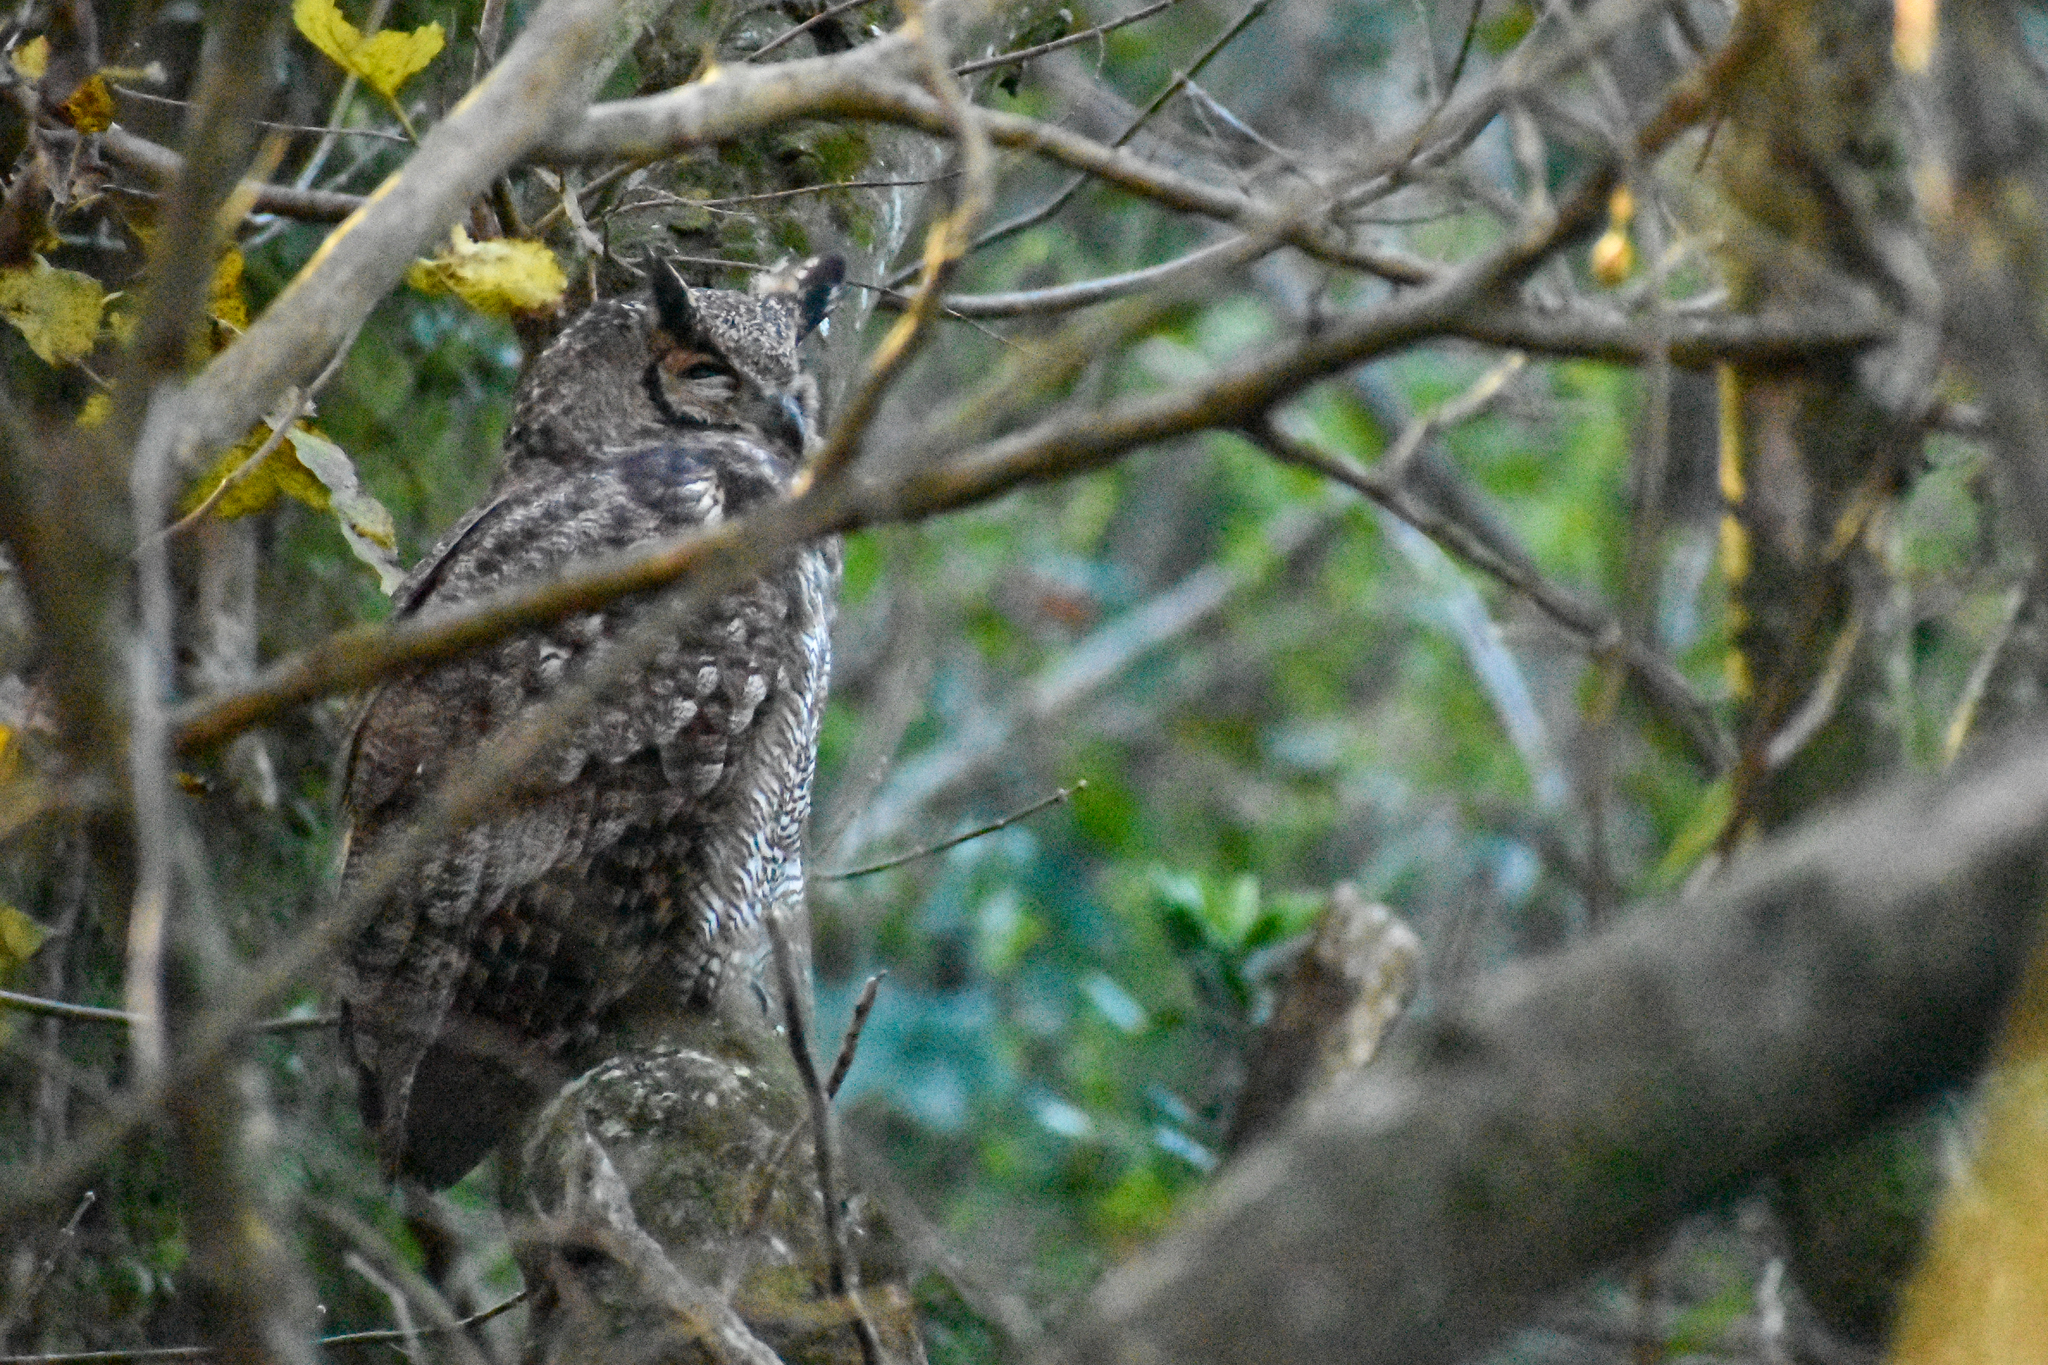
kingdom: Animalia
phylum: Chordata
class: Aves
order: Strigiformes
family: Strigidae
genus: Bubo
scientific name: Bubo virginianus
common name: Great horned owl
